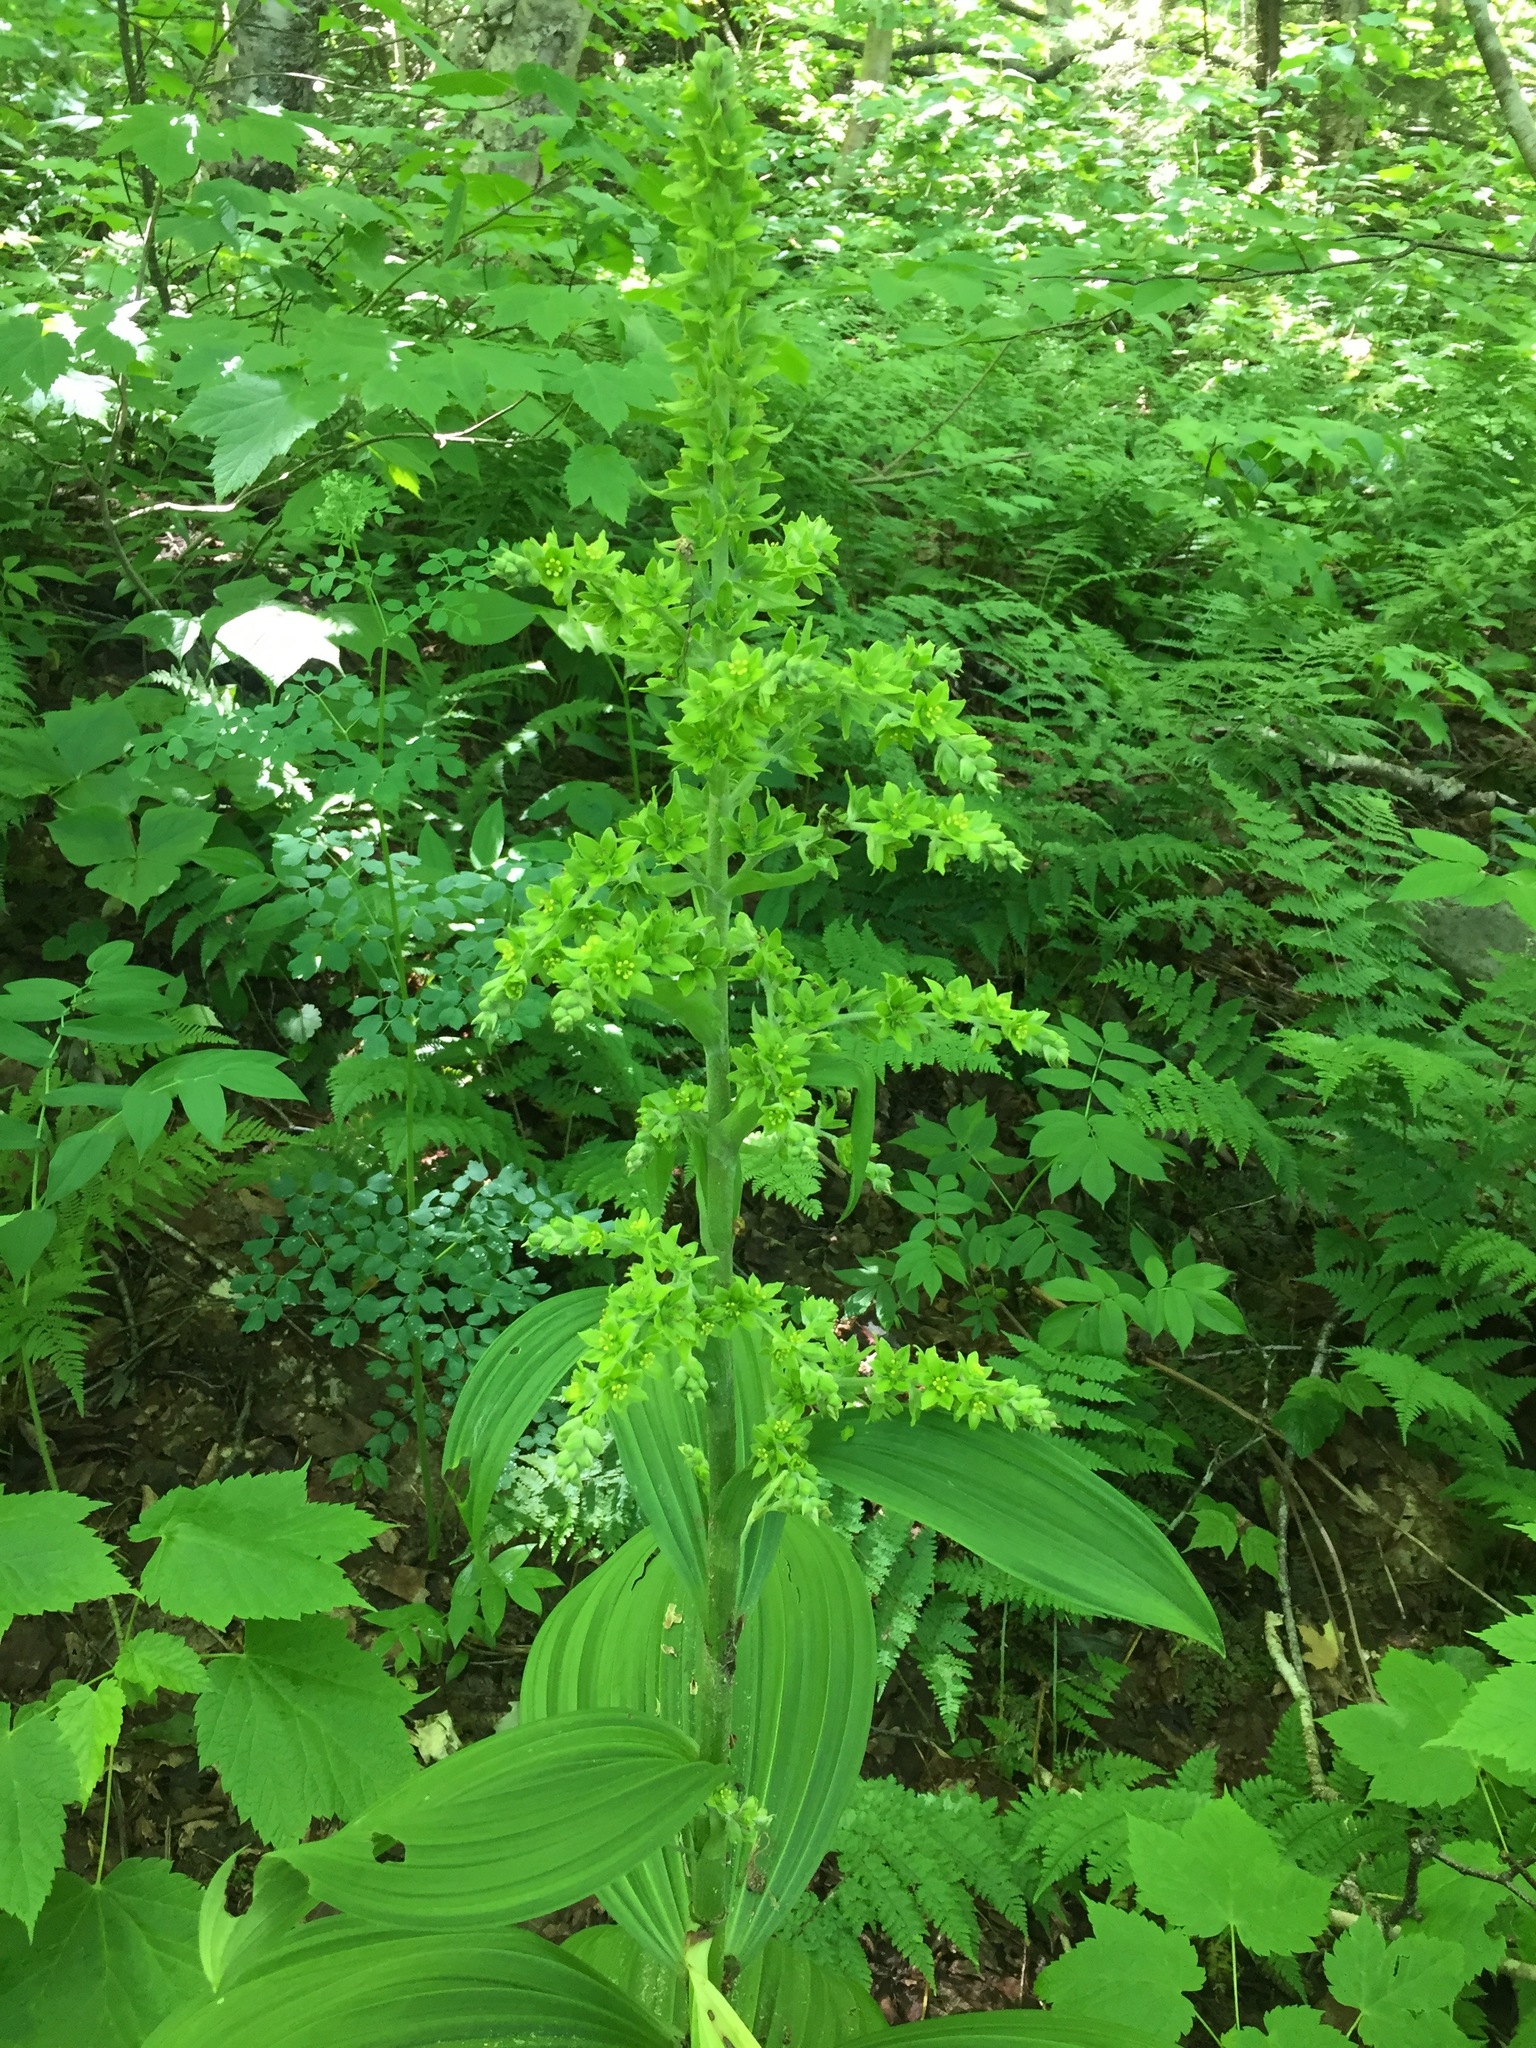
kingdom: Plantae
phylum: Tracheophyta
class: Liliopsida
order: Liliales
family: Melanthiaceae
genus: Veratrum
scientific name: Veratrum viride
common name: American false hellebore
